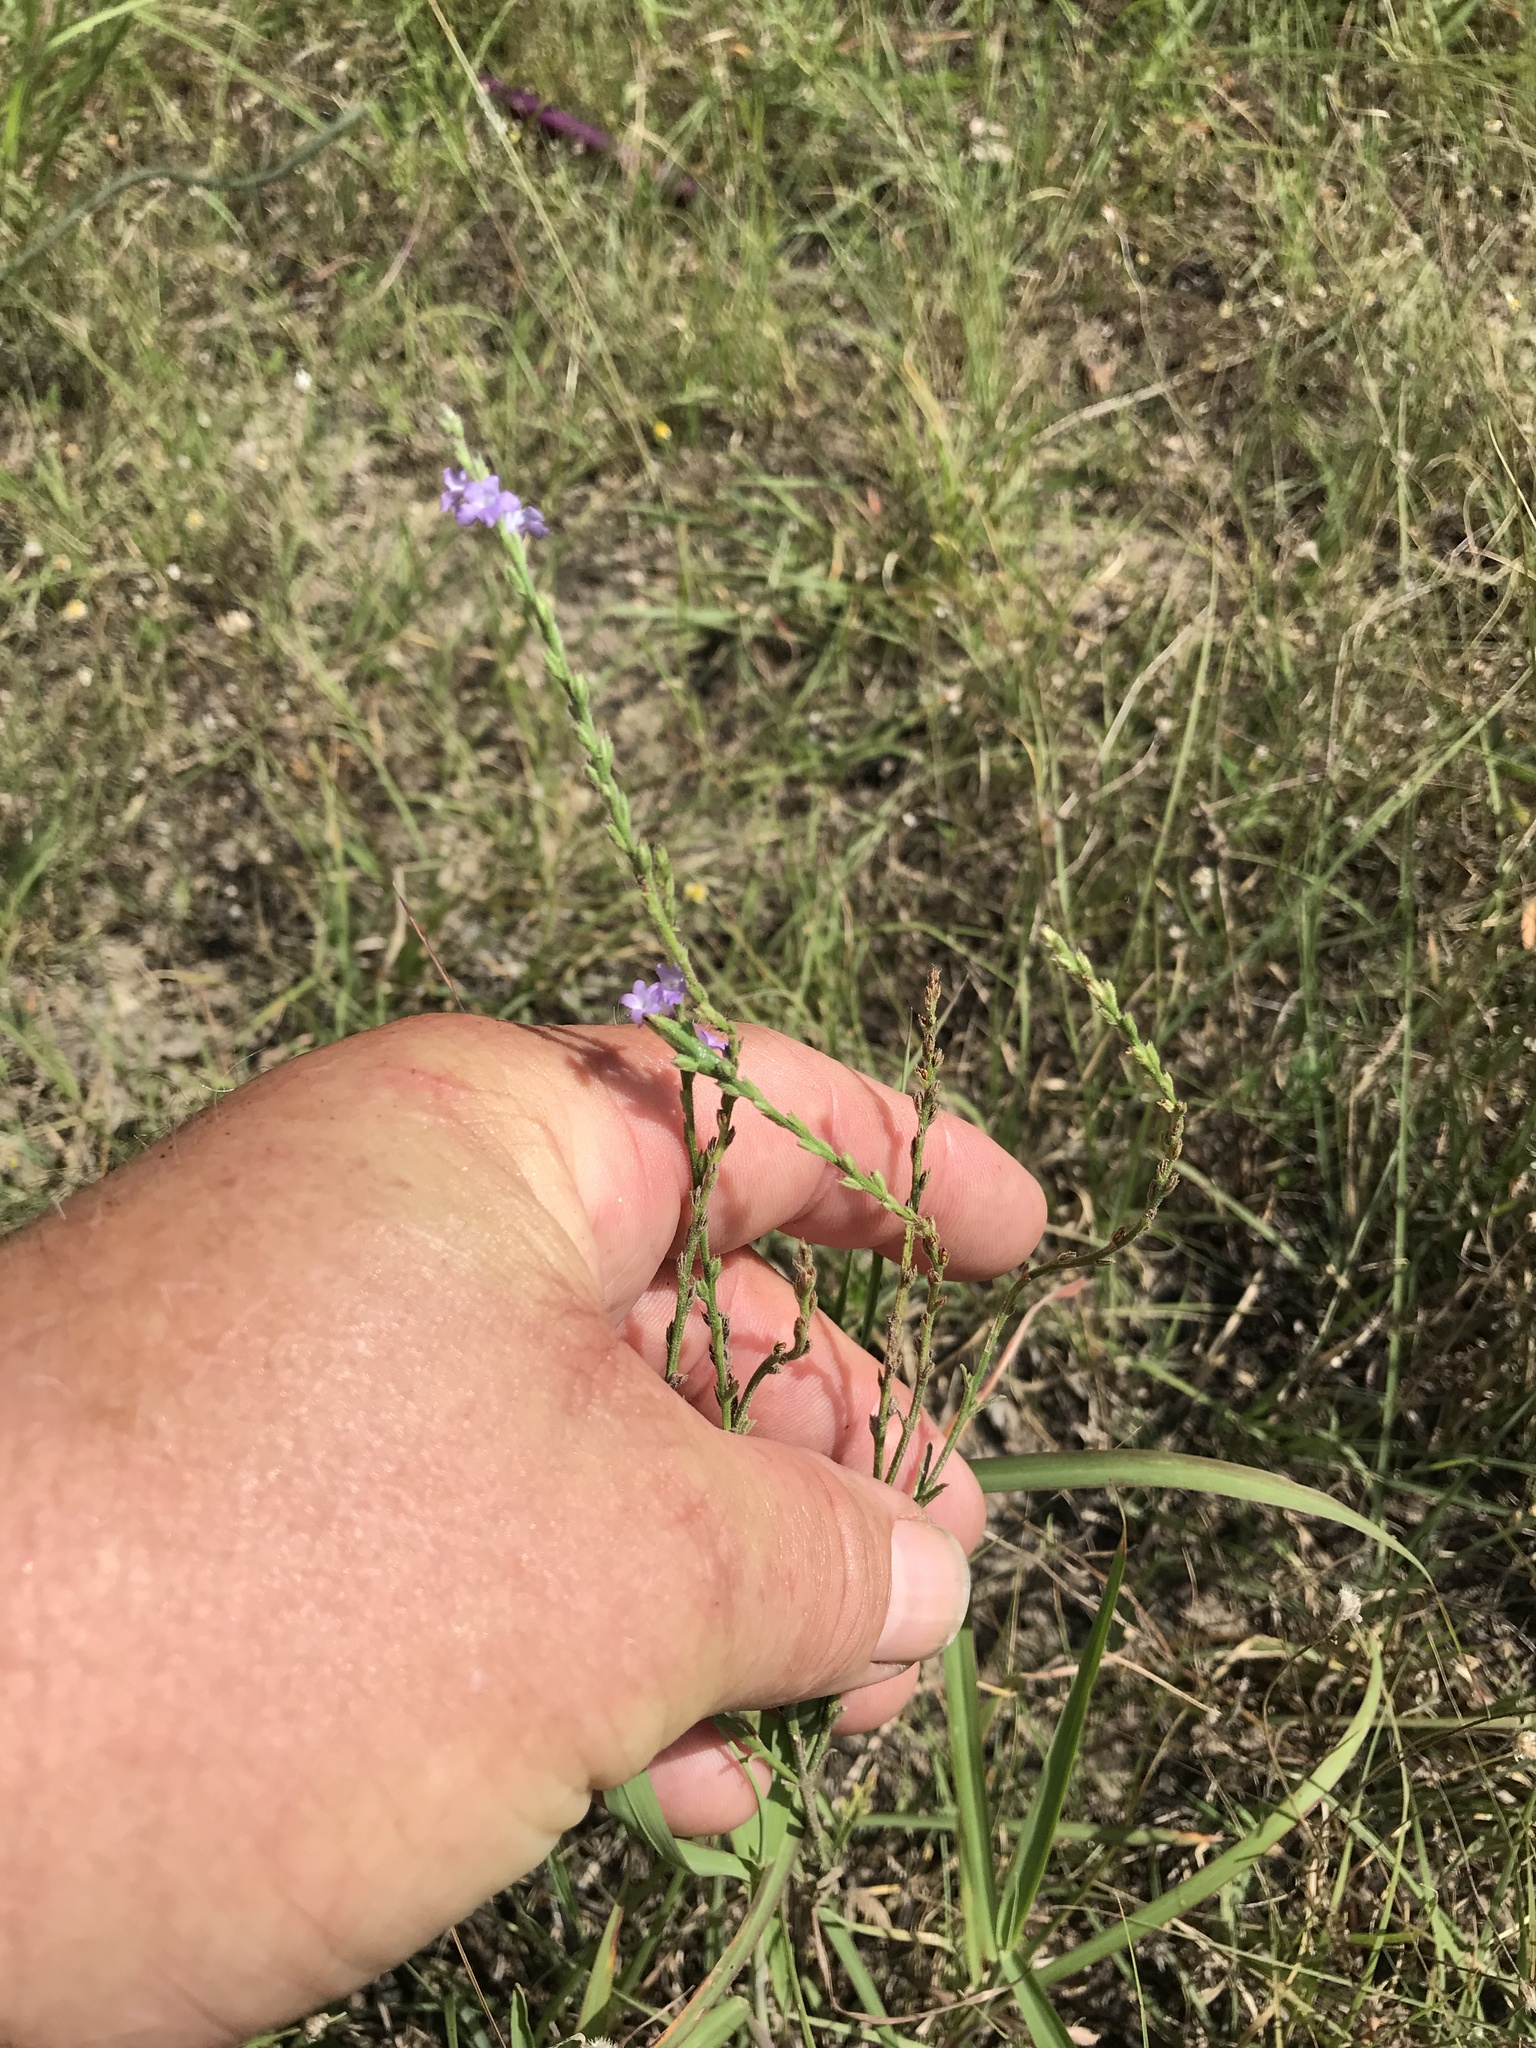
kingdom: Plantae
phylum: Tracheophyta
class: Magnoliopsida
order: Lamiales
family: Verbenaceae
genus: Verbena
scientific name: Verbena halei
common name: Texas vervain
